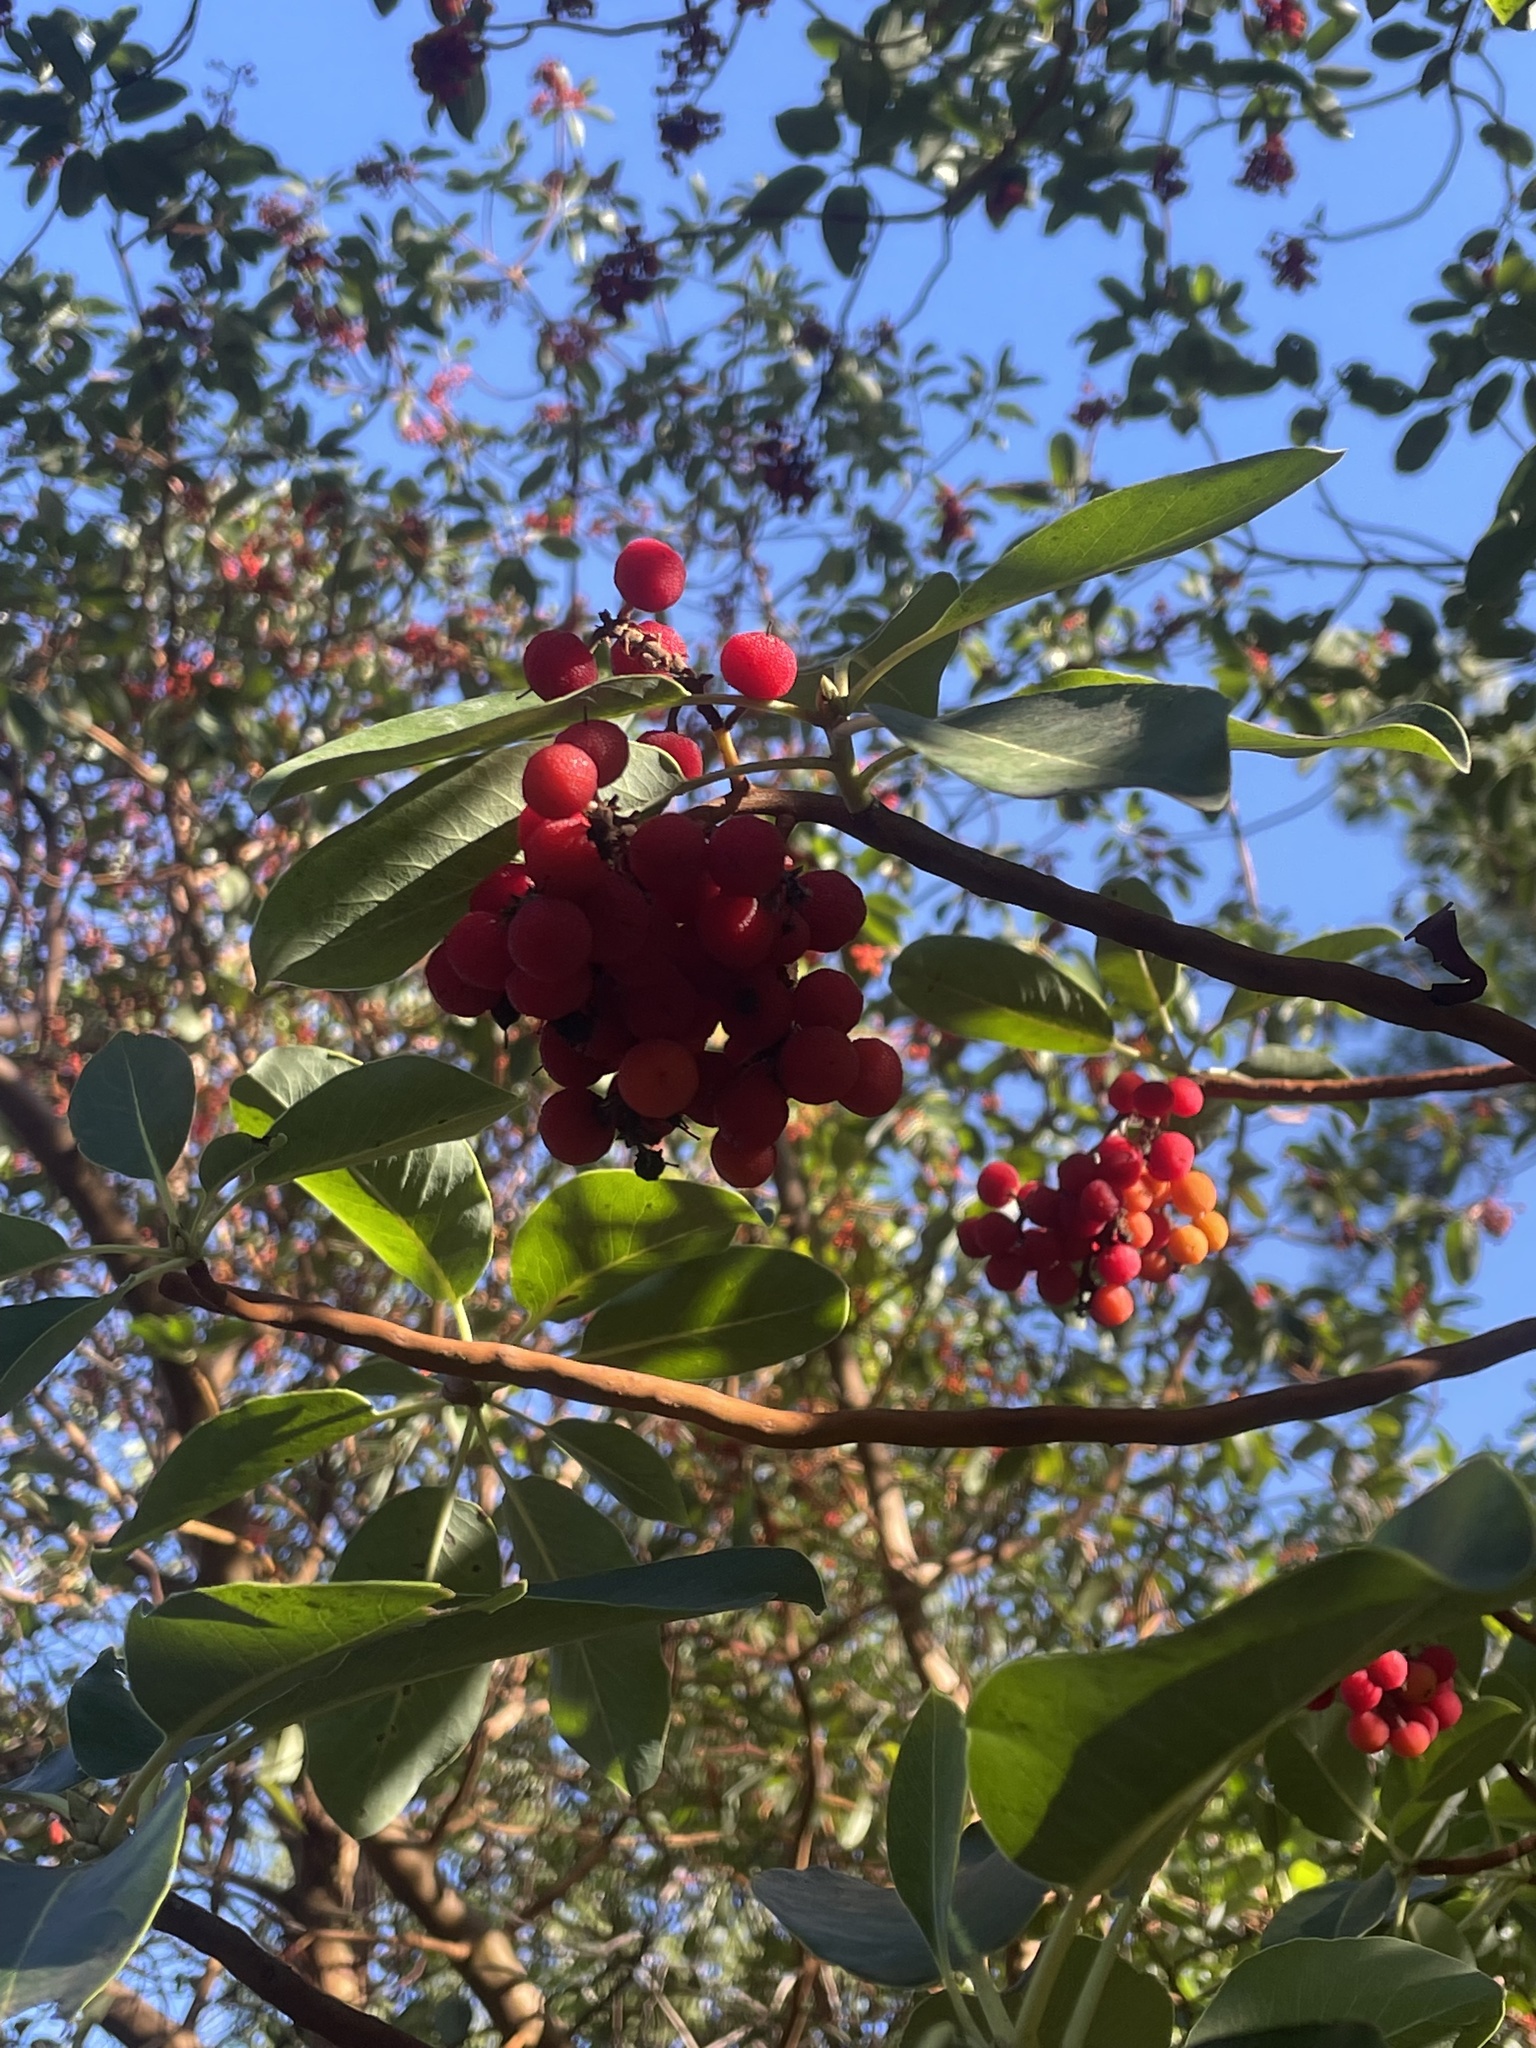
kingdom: Plantae
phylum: Tracheophyta
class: Magnoliopsida
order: Ericales
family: Ericaceae
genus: Arbutus
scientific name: Arbutus menziesii
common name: Pacific madrone
